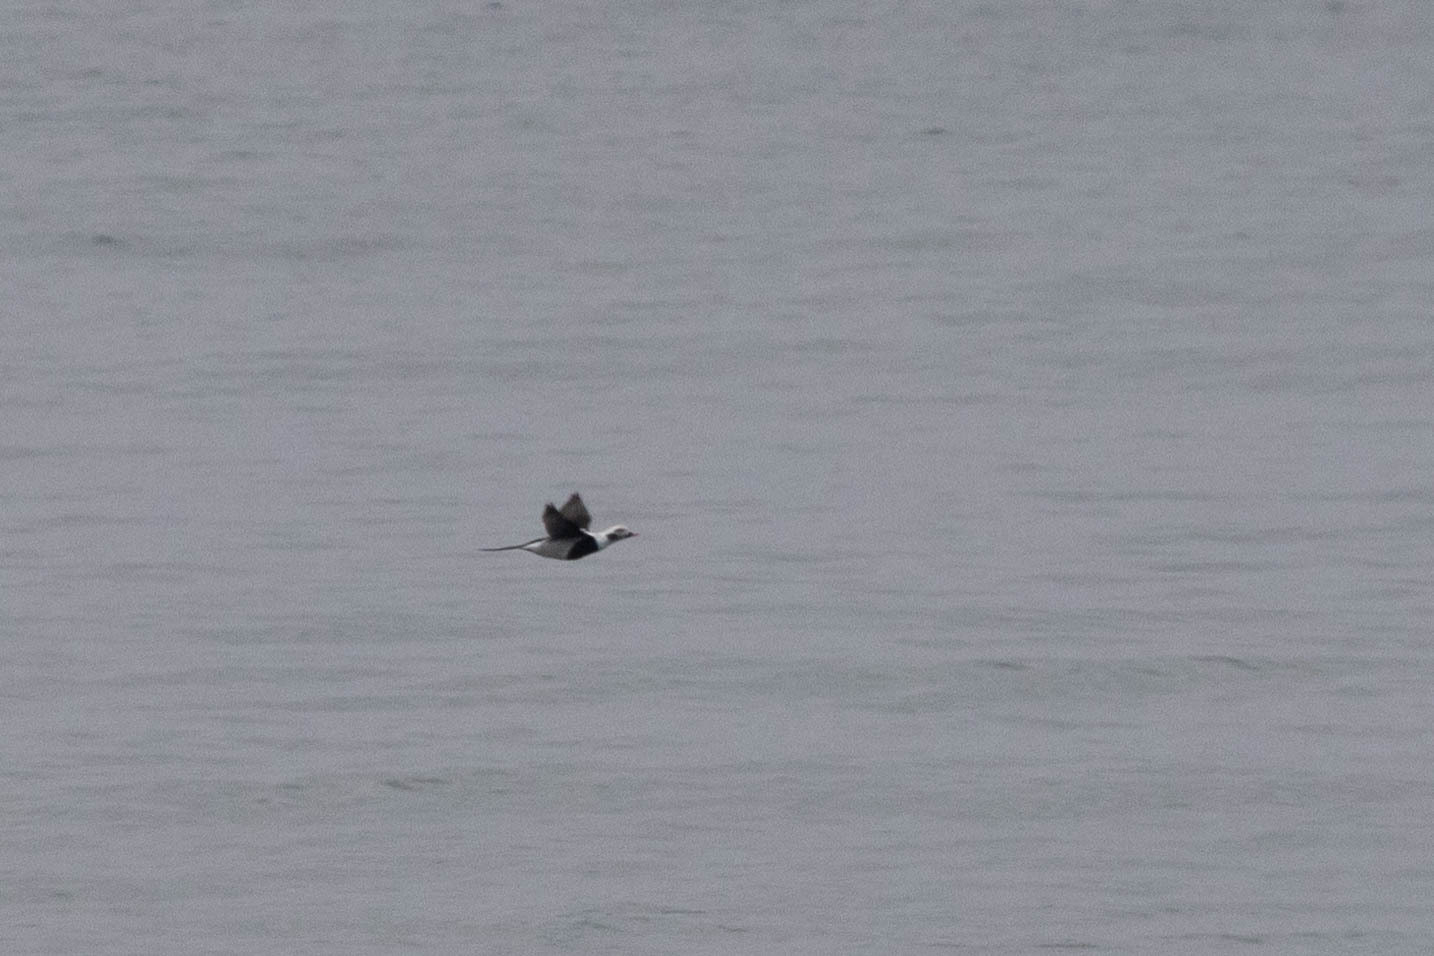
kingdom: Animalia
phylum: Chordata
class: Aves
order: Anseriformes
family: Anatidae
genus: Clangula
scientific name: Clangula hyemalis
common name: Long-tailed duck
